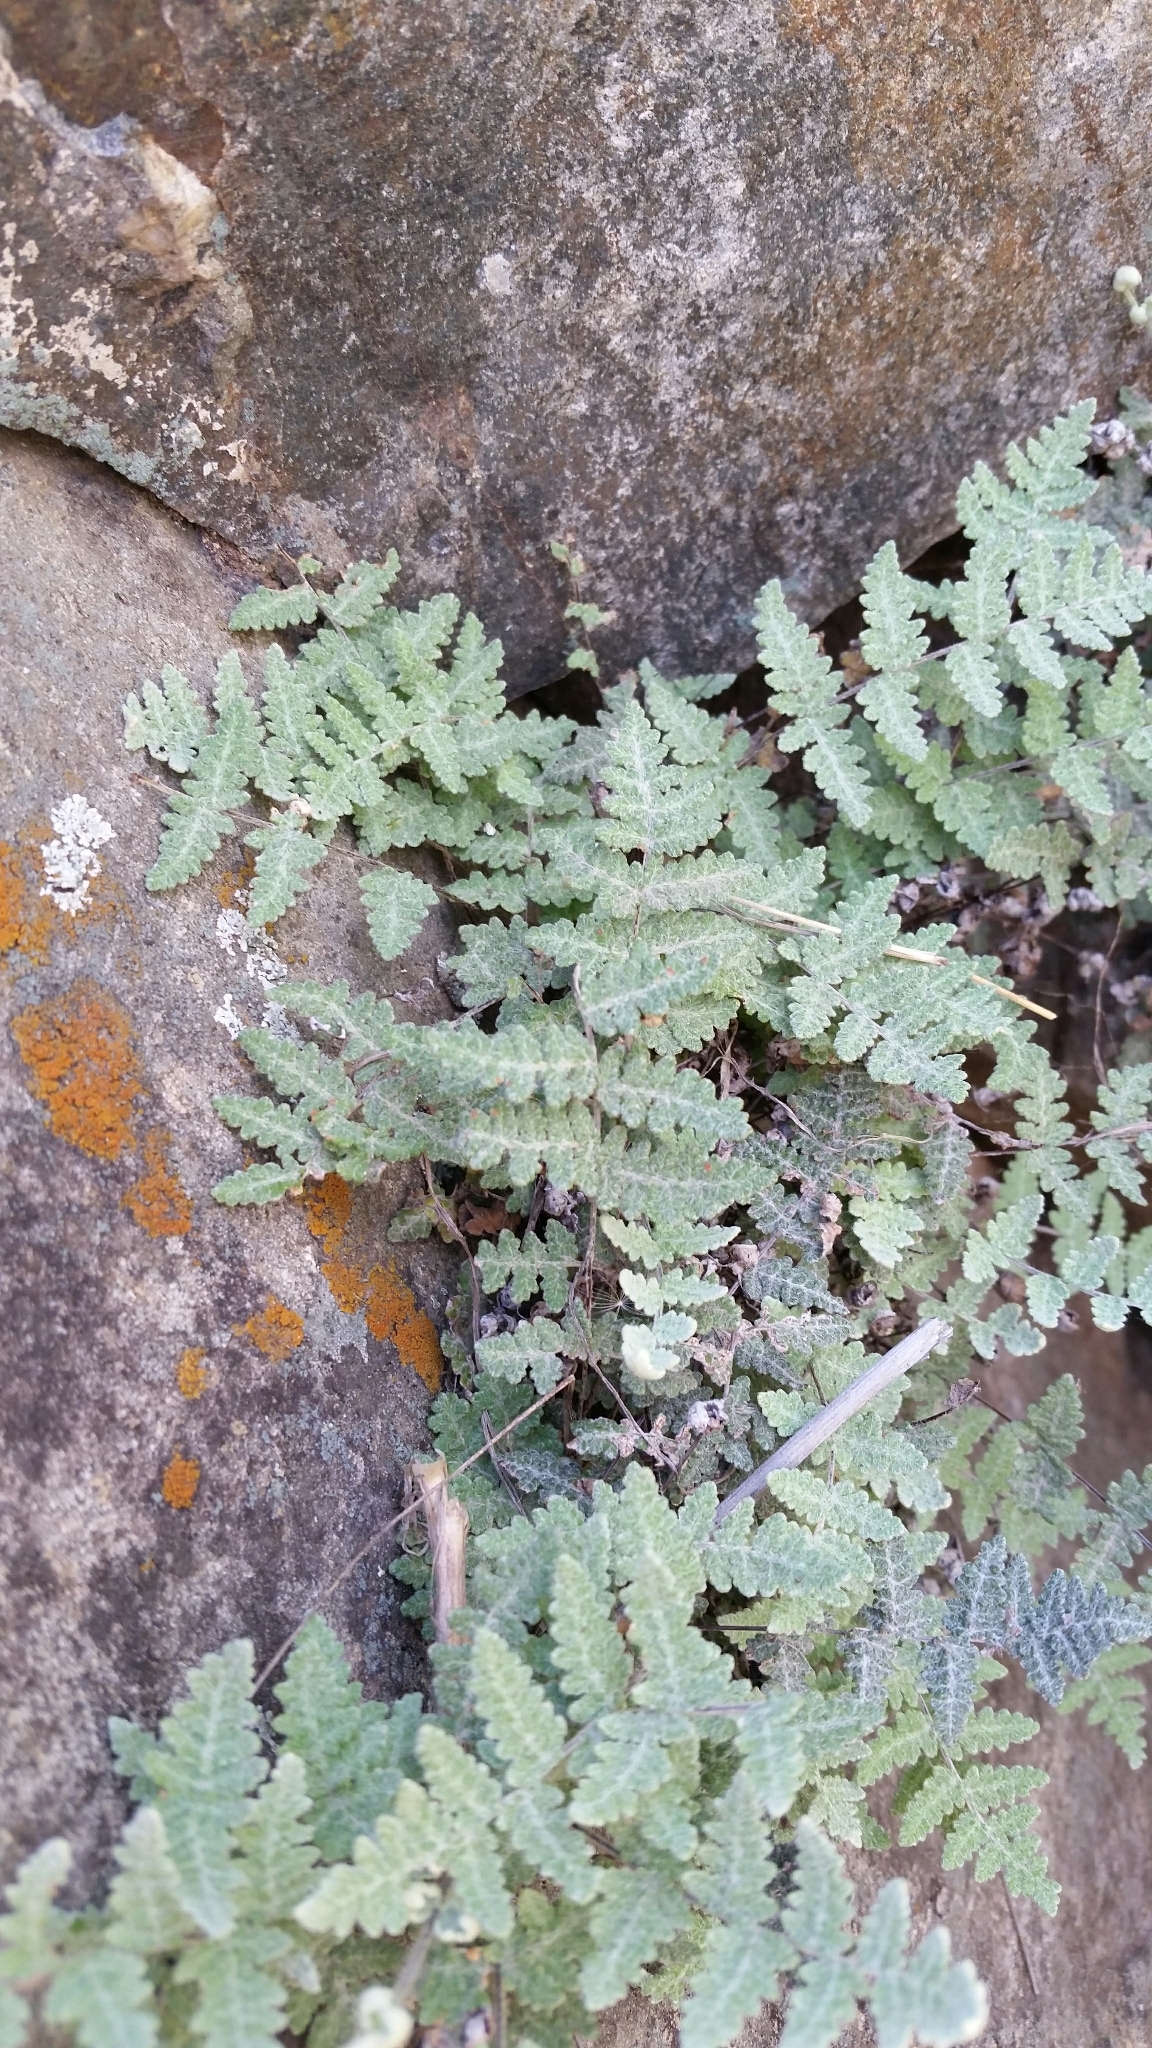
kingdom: Plantae
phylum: Tracheophyta
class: Polypodiopsida
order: Polypodiales
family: Pteridaceae
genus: Myriopteris
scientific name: Myriopteris newberryi
